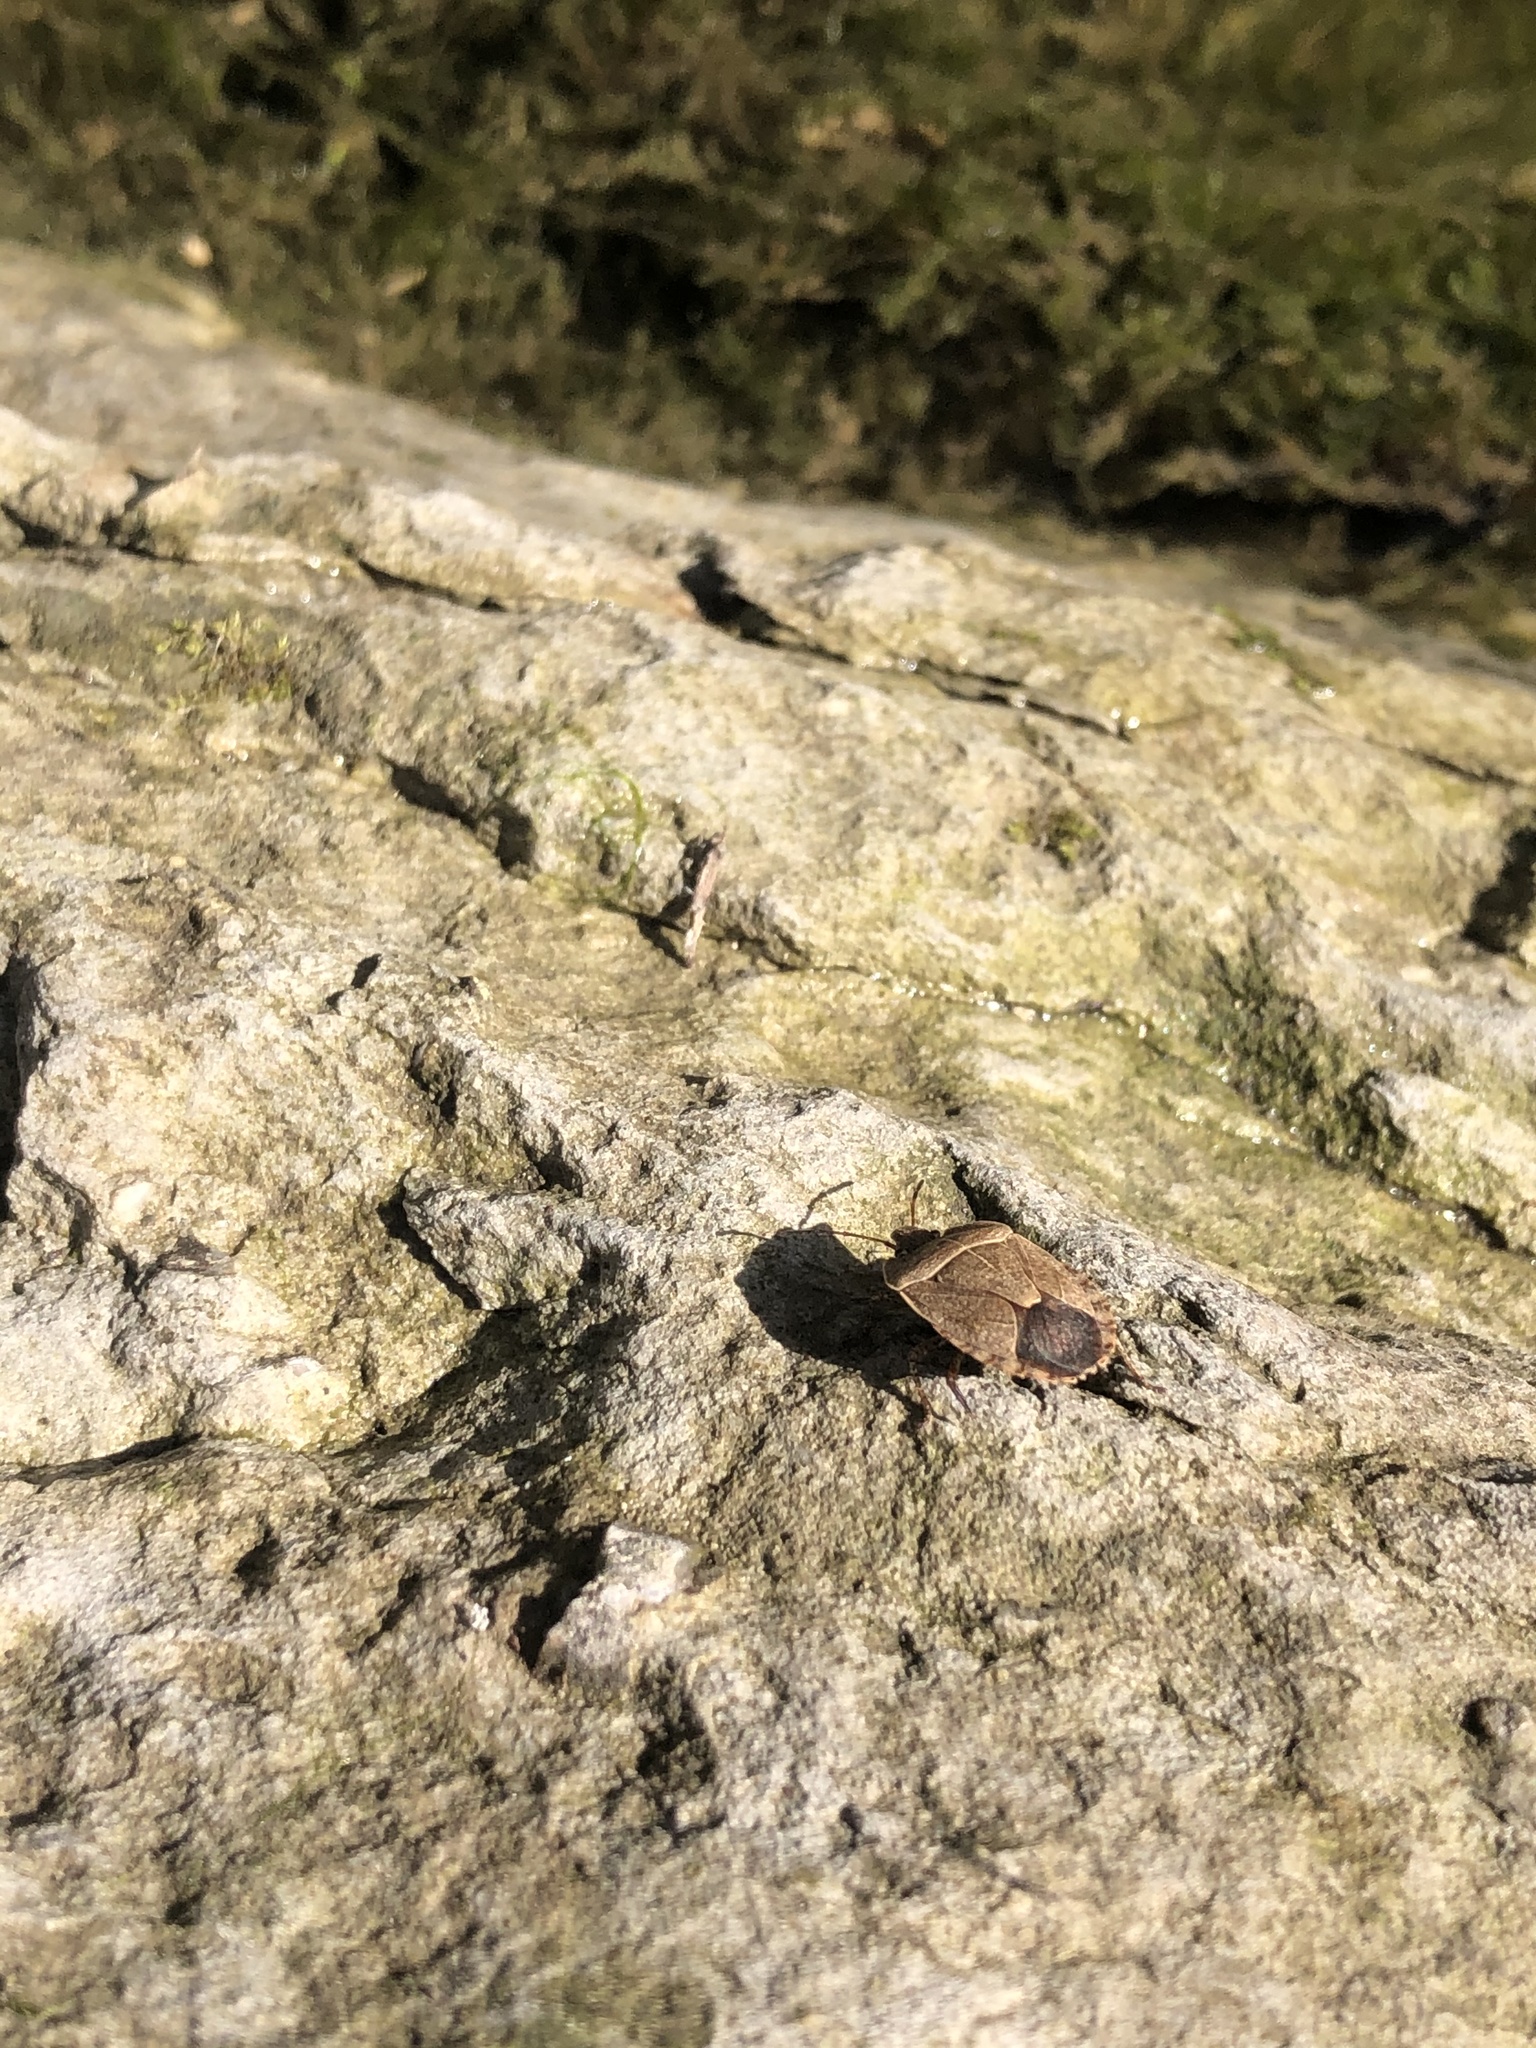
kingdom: Animalia
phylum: Arthropoda
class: Insecta
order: Hemiptera
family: Pentatomidae
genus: Menecles
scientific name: Menecles insertus
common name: Elf shoe stink bug
